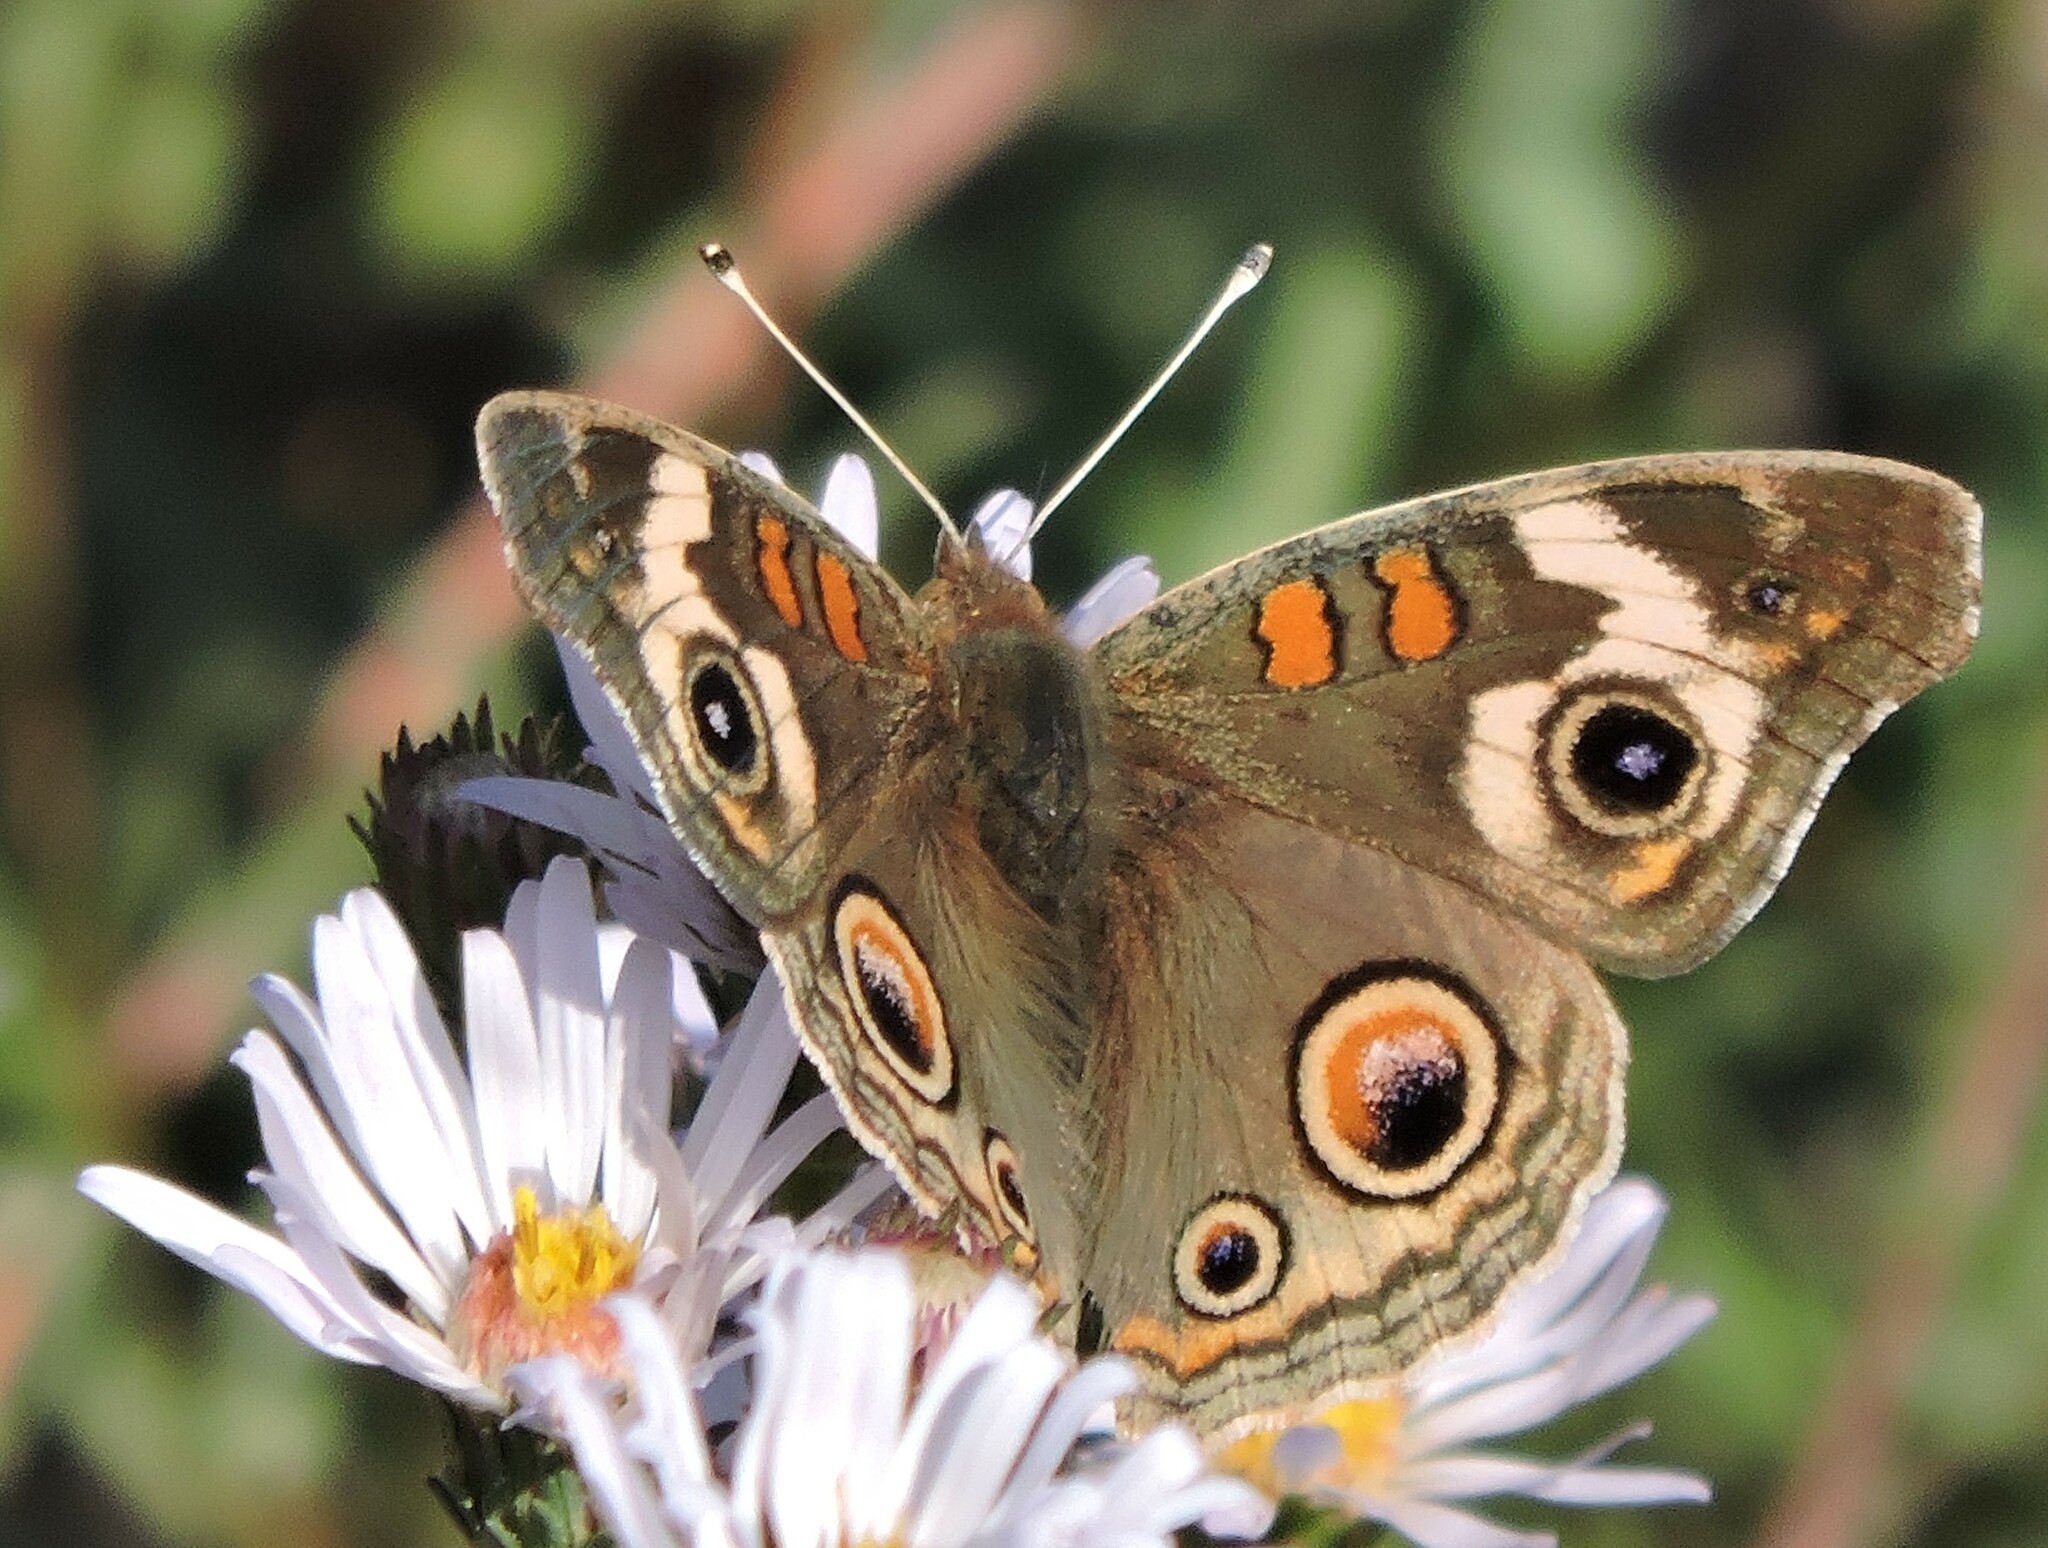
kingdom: Animalia
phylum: Arthropoda
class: Insecta
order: Lepidoptera
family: Nymphalidae
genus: Junonia
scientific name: Junonia grisea
